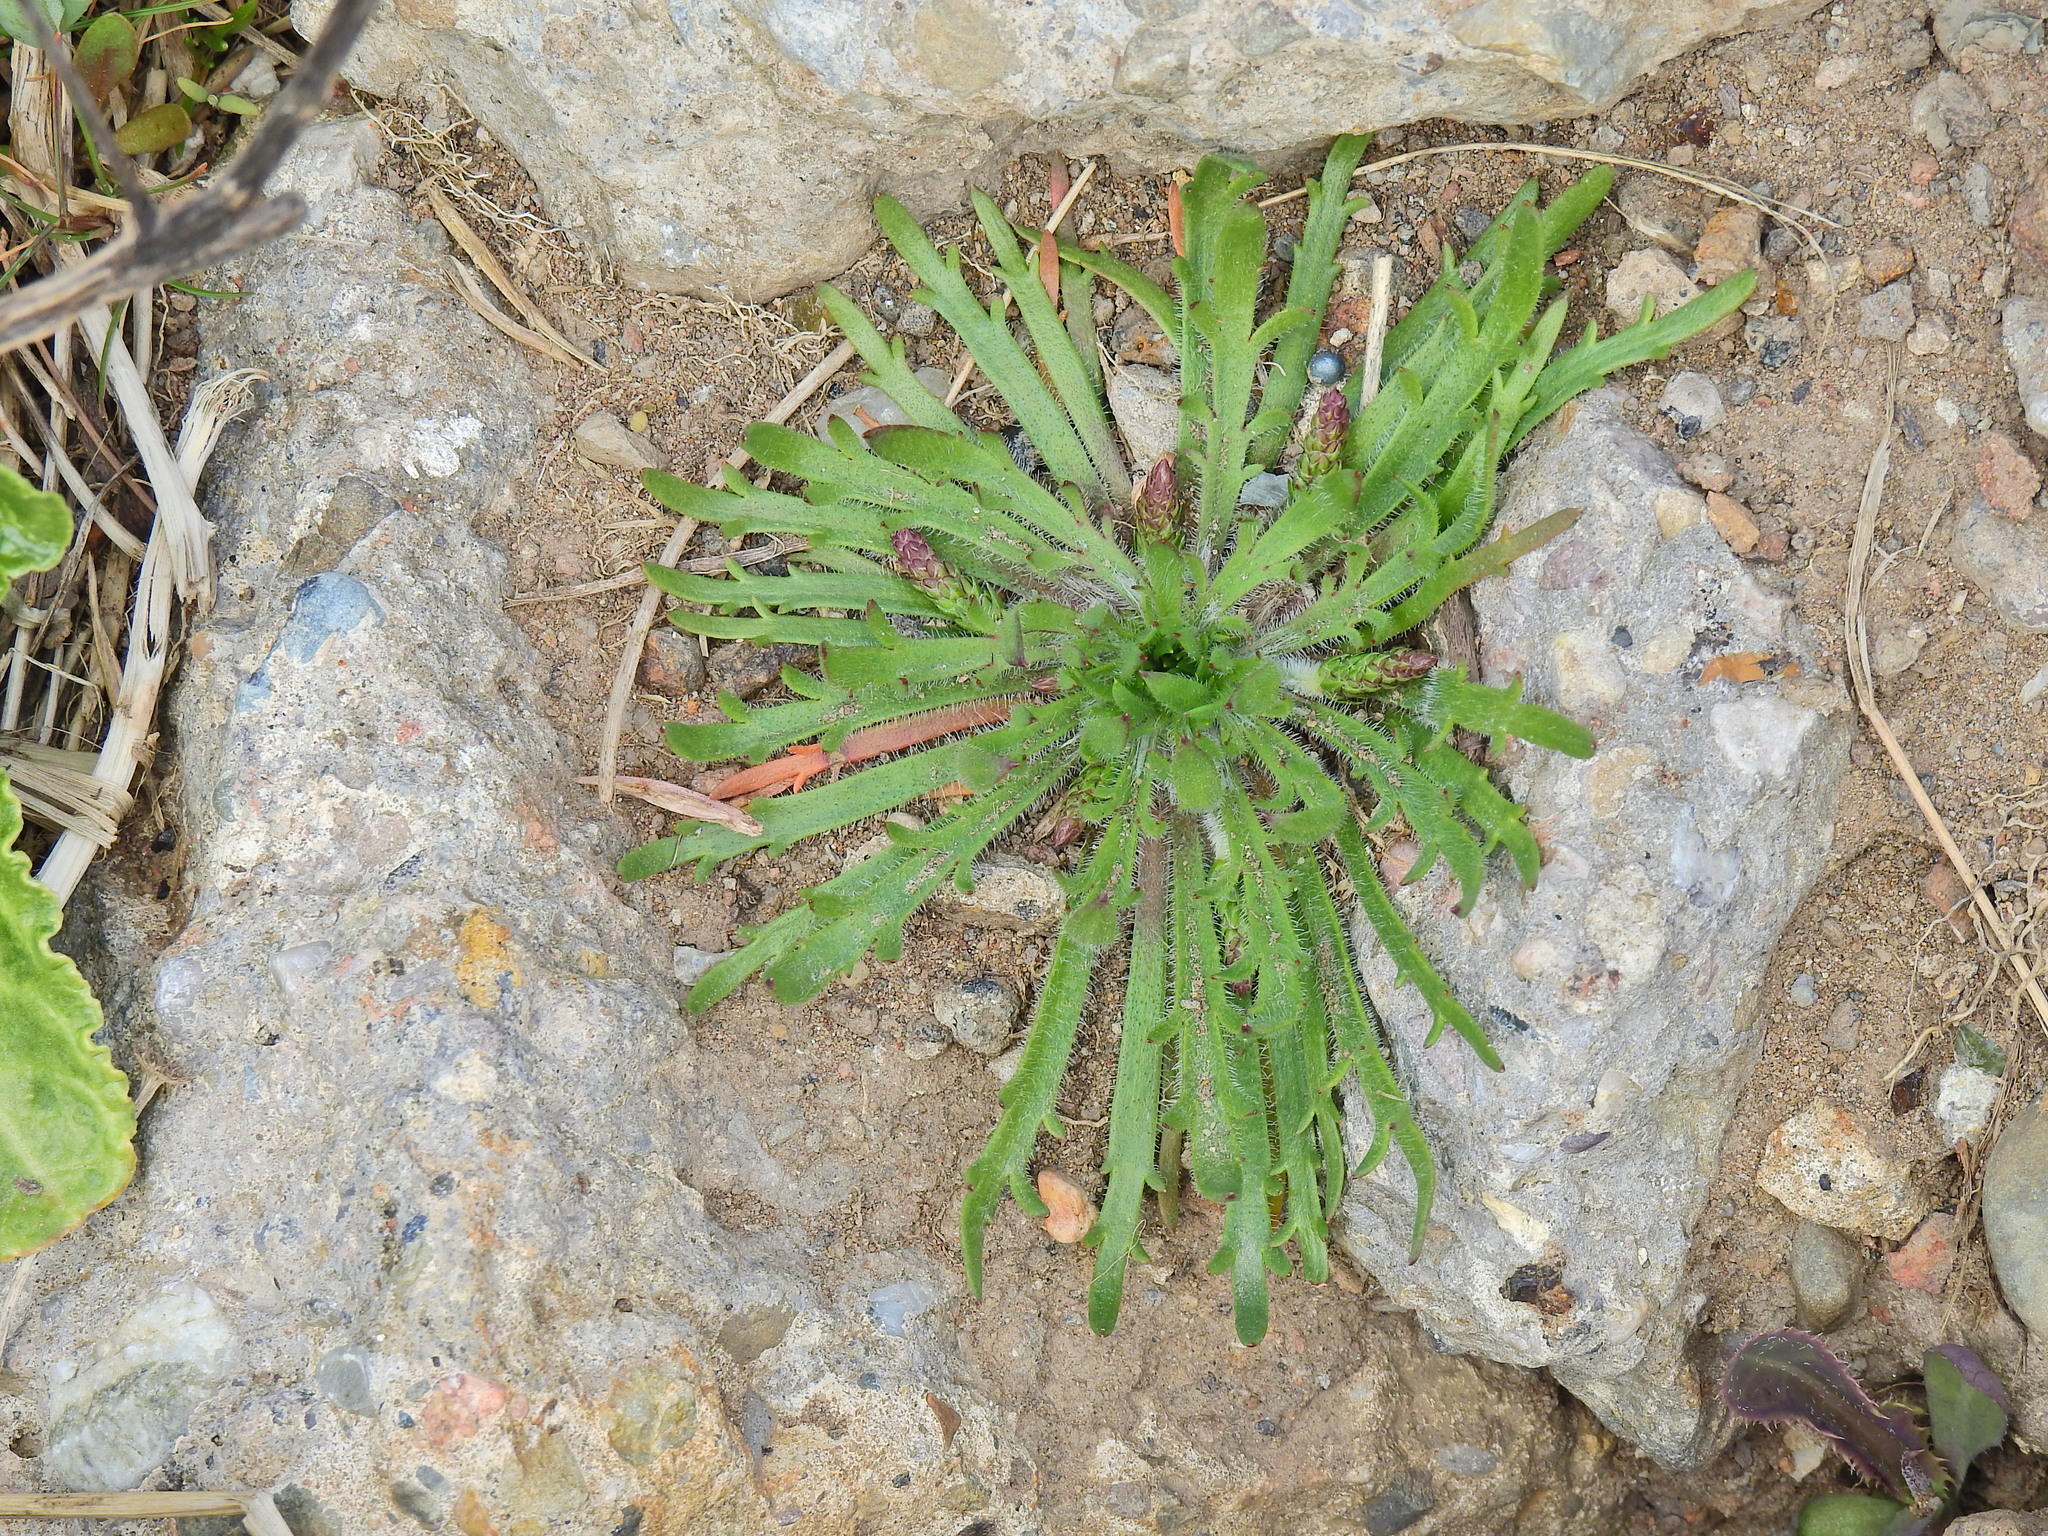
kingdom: Plantae
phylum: Tracheophyta
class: Magnoliopsida
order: Lamiales
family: Plantaginaceae
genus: Plantago
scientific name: Plantago coronopus
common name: Buck's-horn plantain
